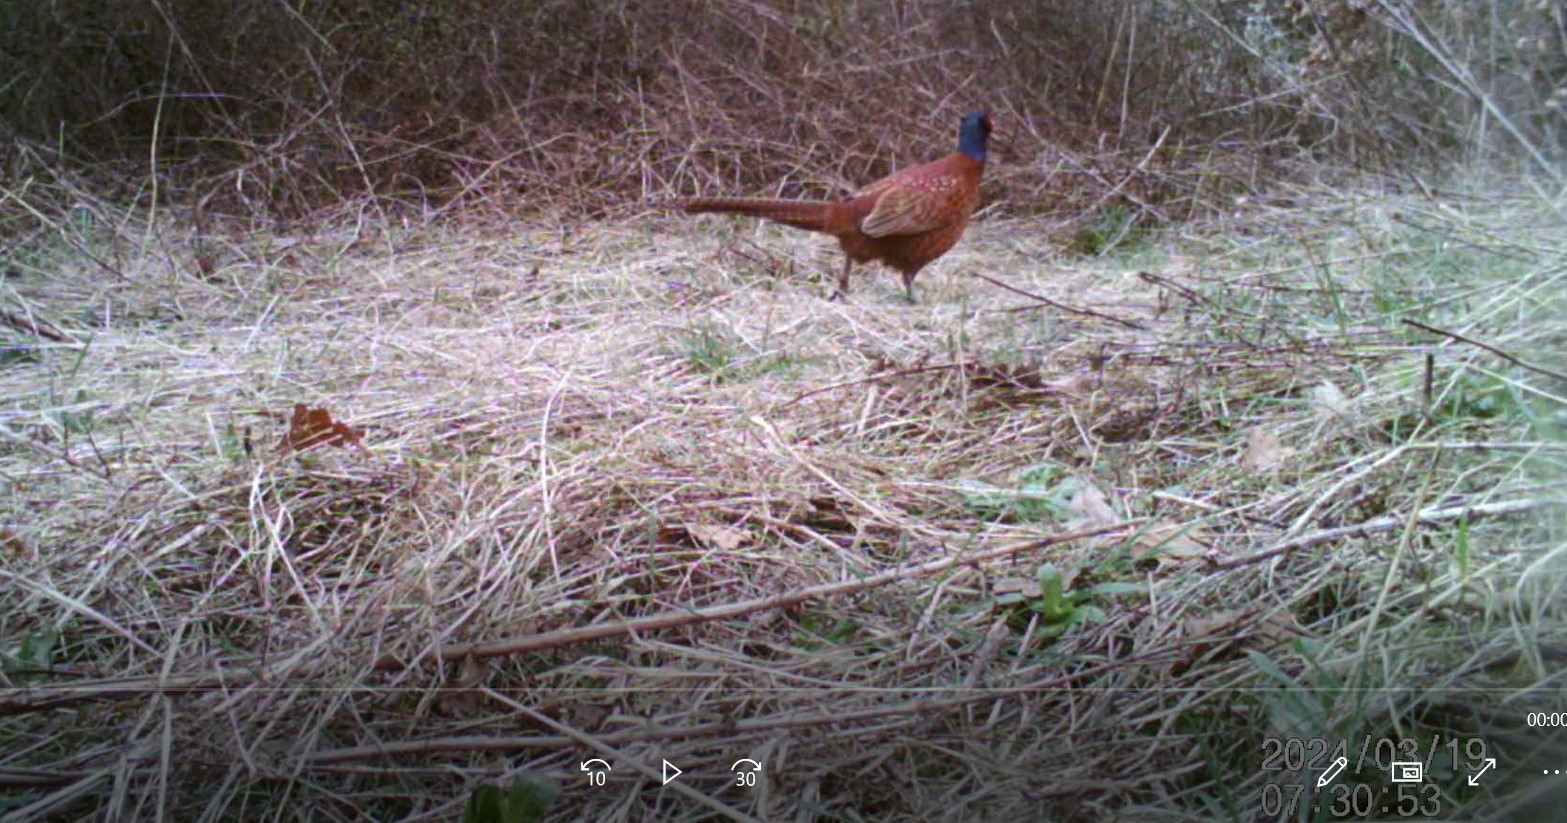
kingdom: Animalia
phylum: Chordata
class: Aves
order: Galliformes
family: Phasianidae
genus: Phasianus
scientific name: Phasianus colchicus
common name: Common pheasant
